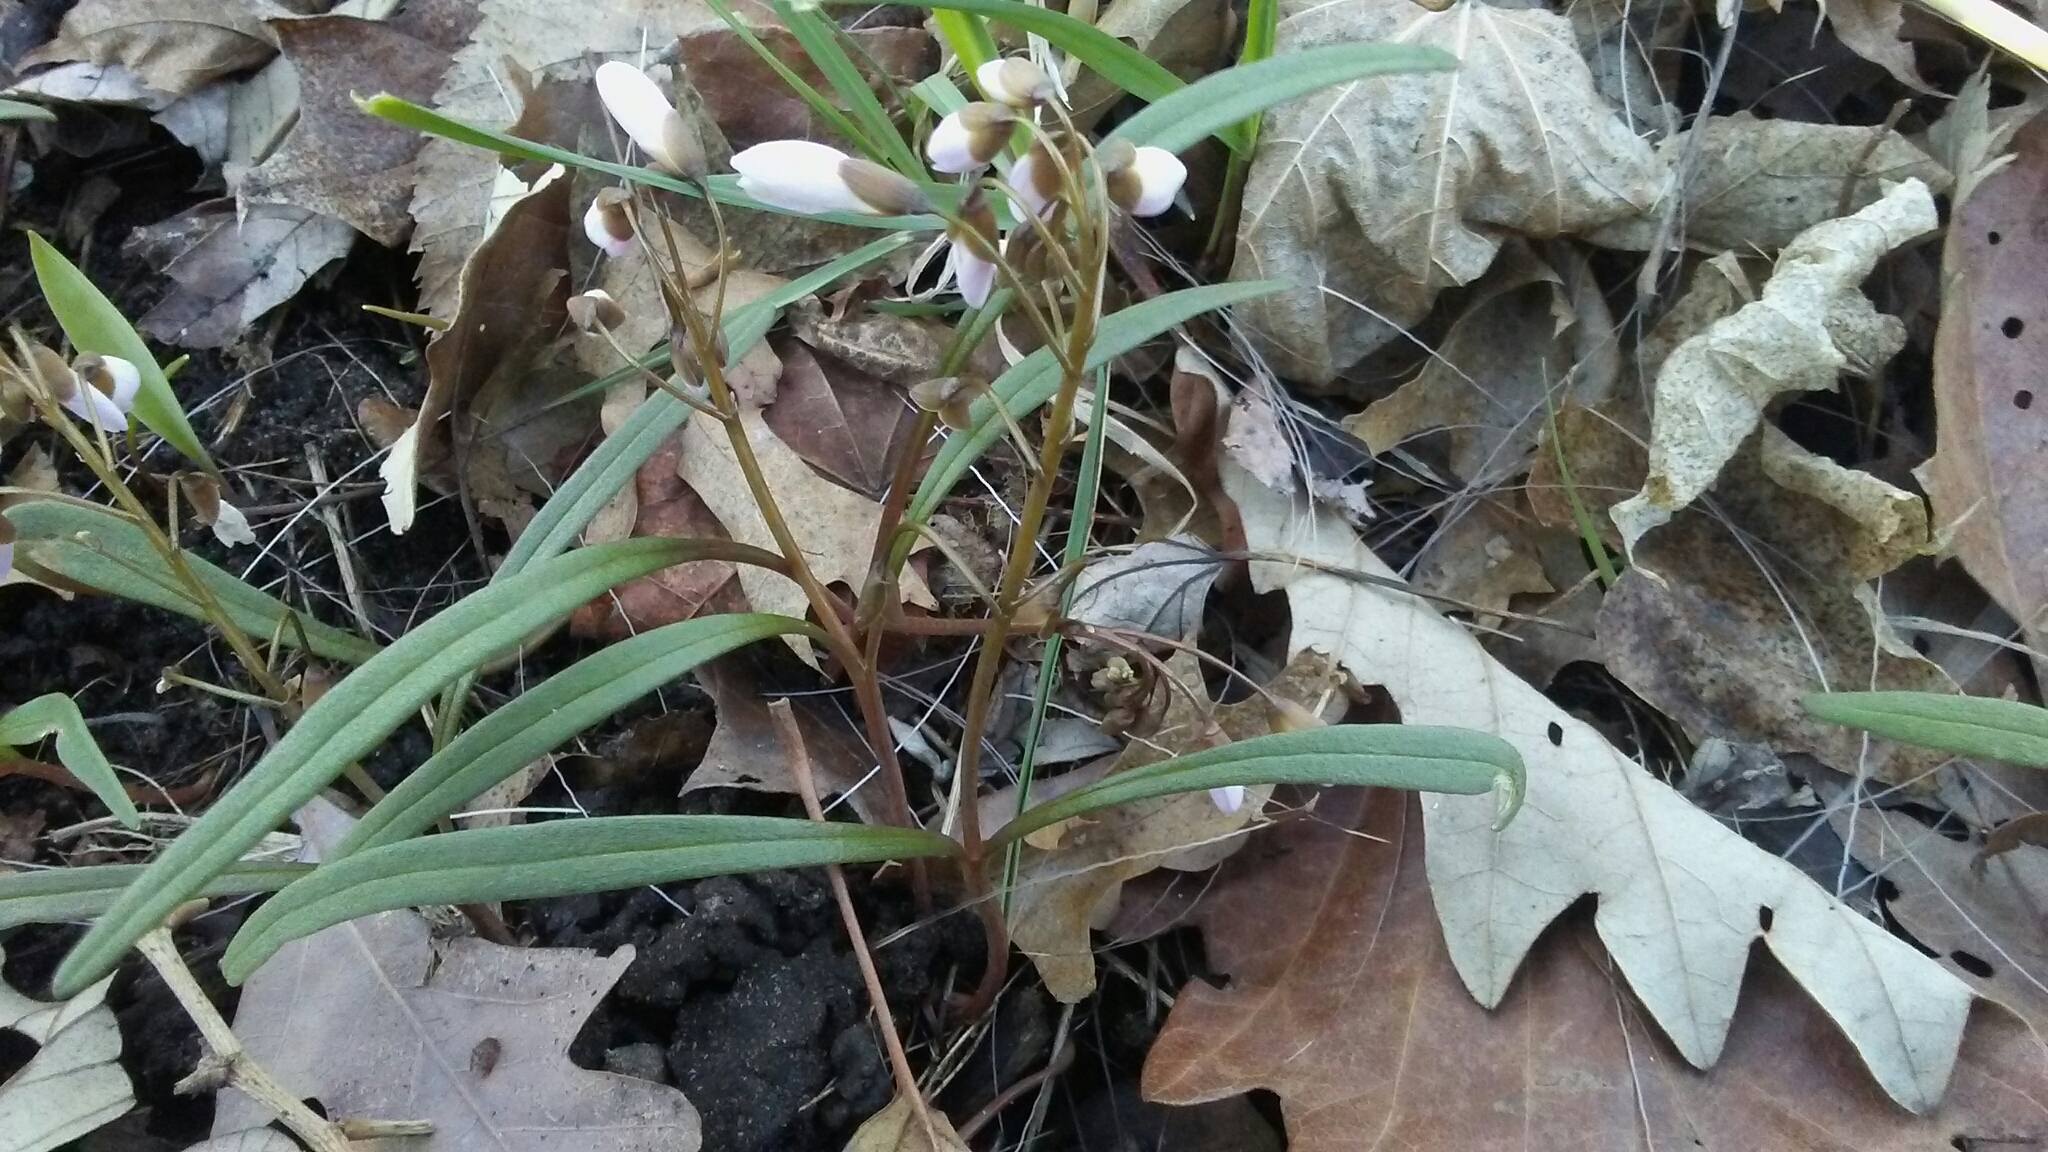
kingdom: Plantae
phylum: Tracheophyta
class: Magnoliopsida
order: Caryophyllales
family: Montiaceae
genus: Claytonia
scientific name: Claytonia virginica
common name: Virginia springbeauty
